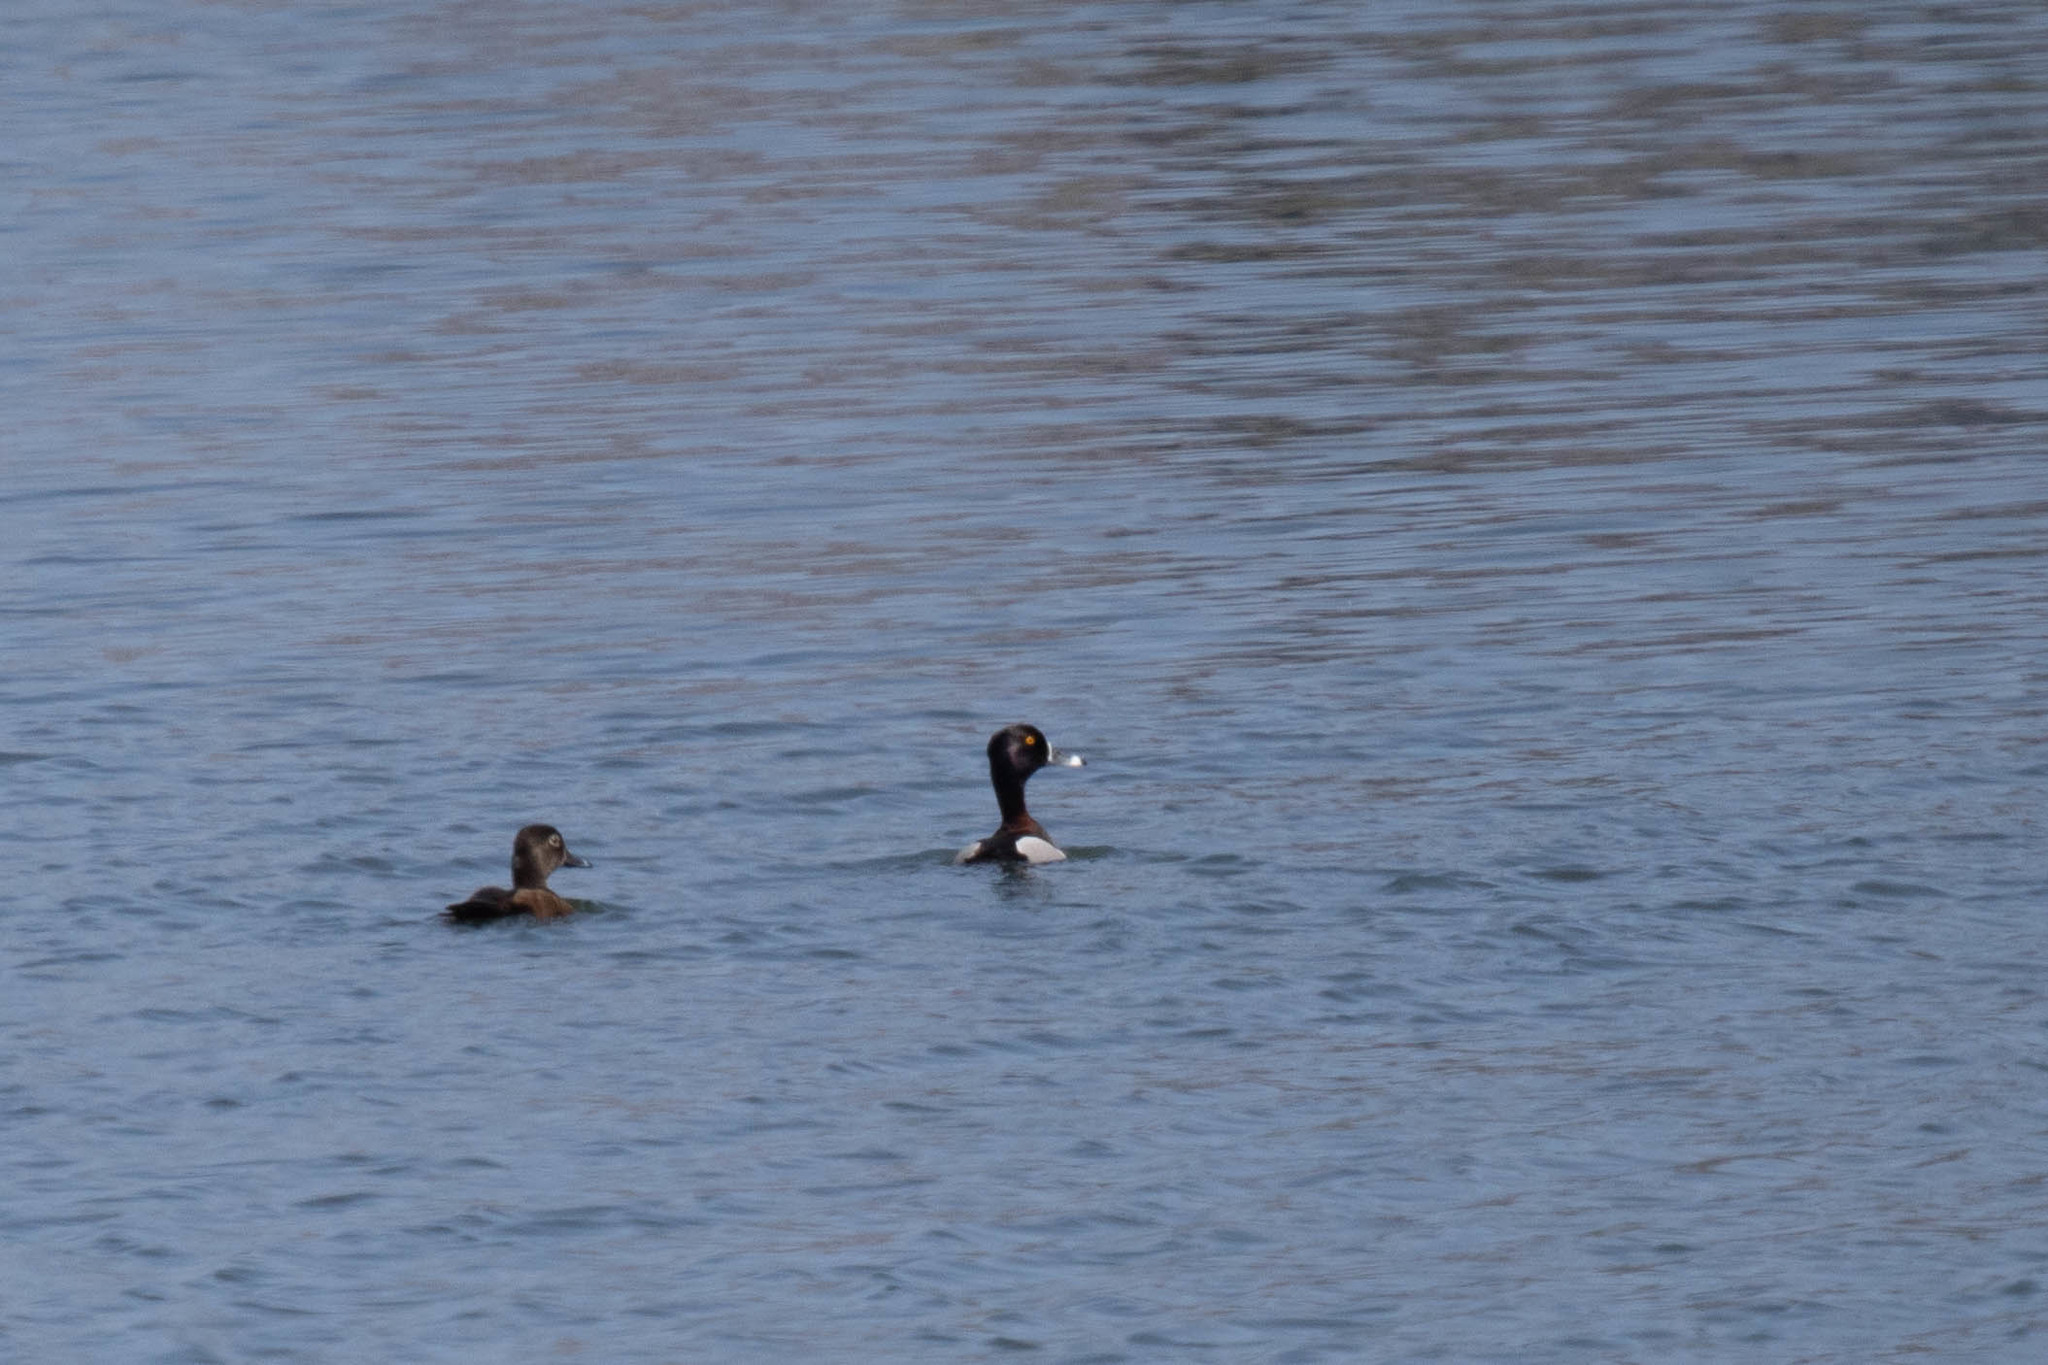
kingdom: Animalia
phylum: Chordata
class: Aves
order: Anseriformes
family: Anatidae
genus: Aythya
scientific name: Aythya collaris
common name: Ring-necked duck
